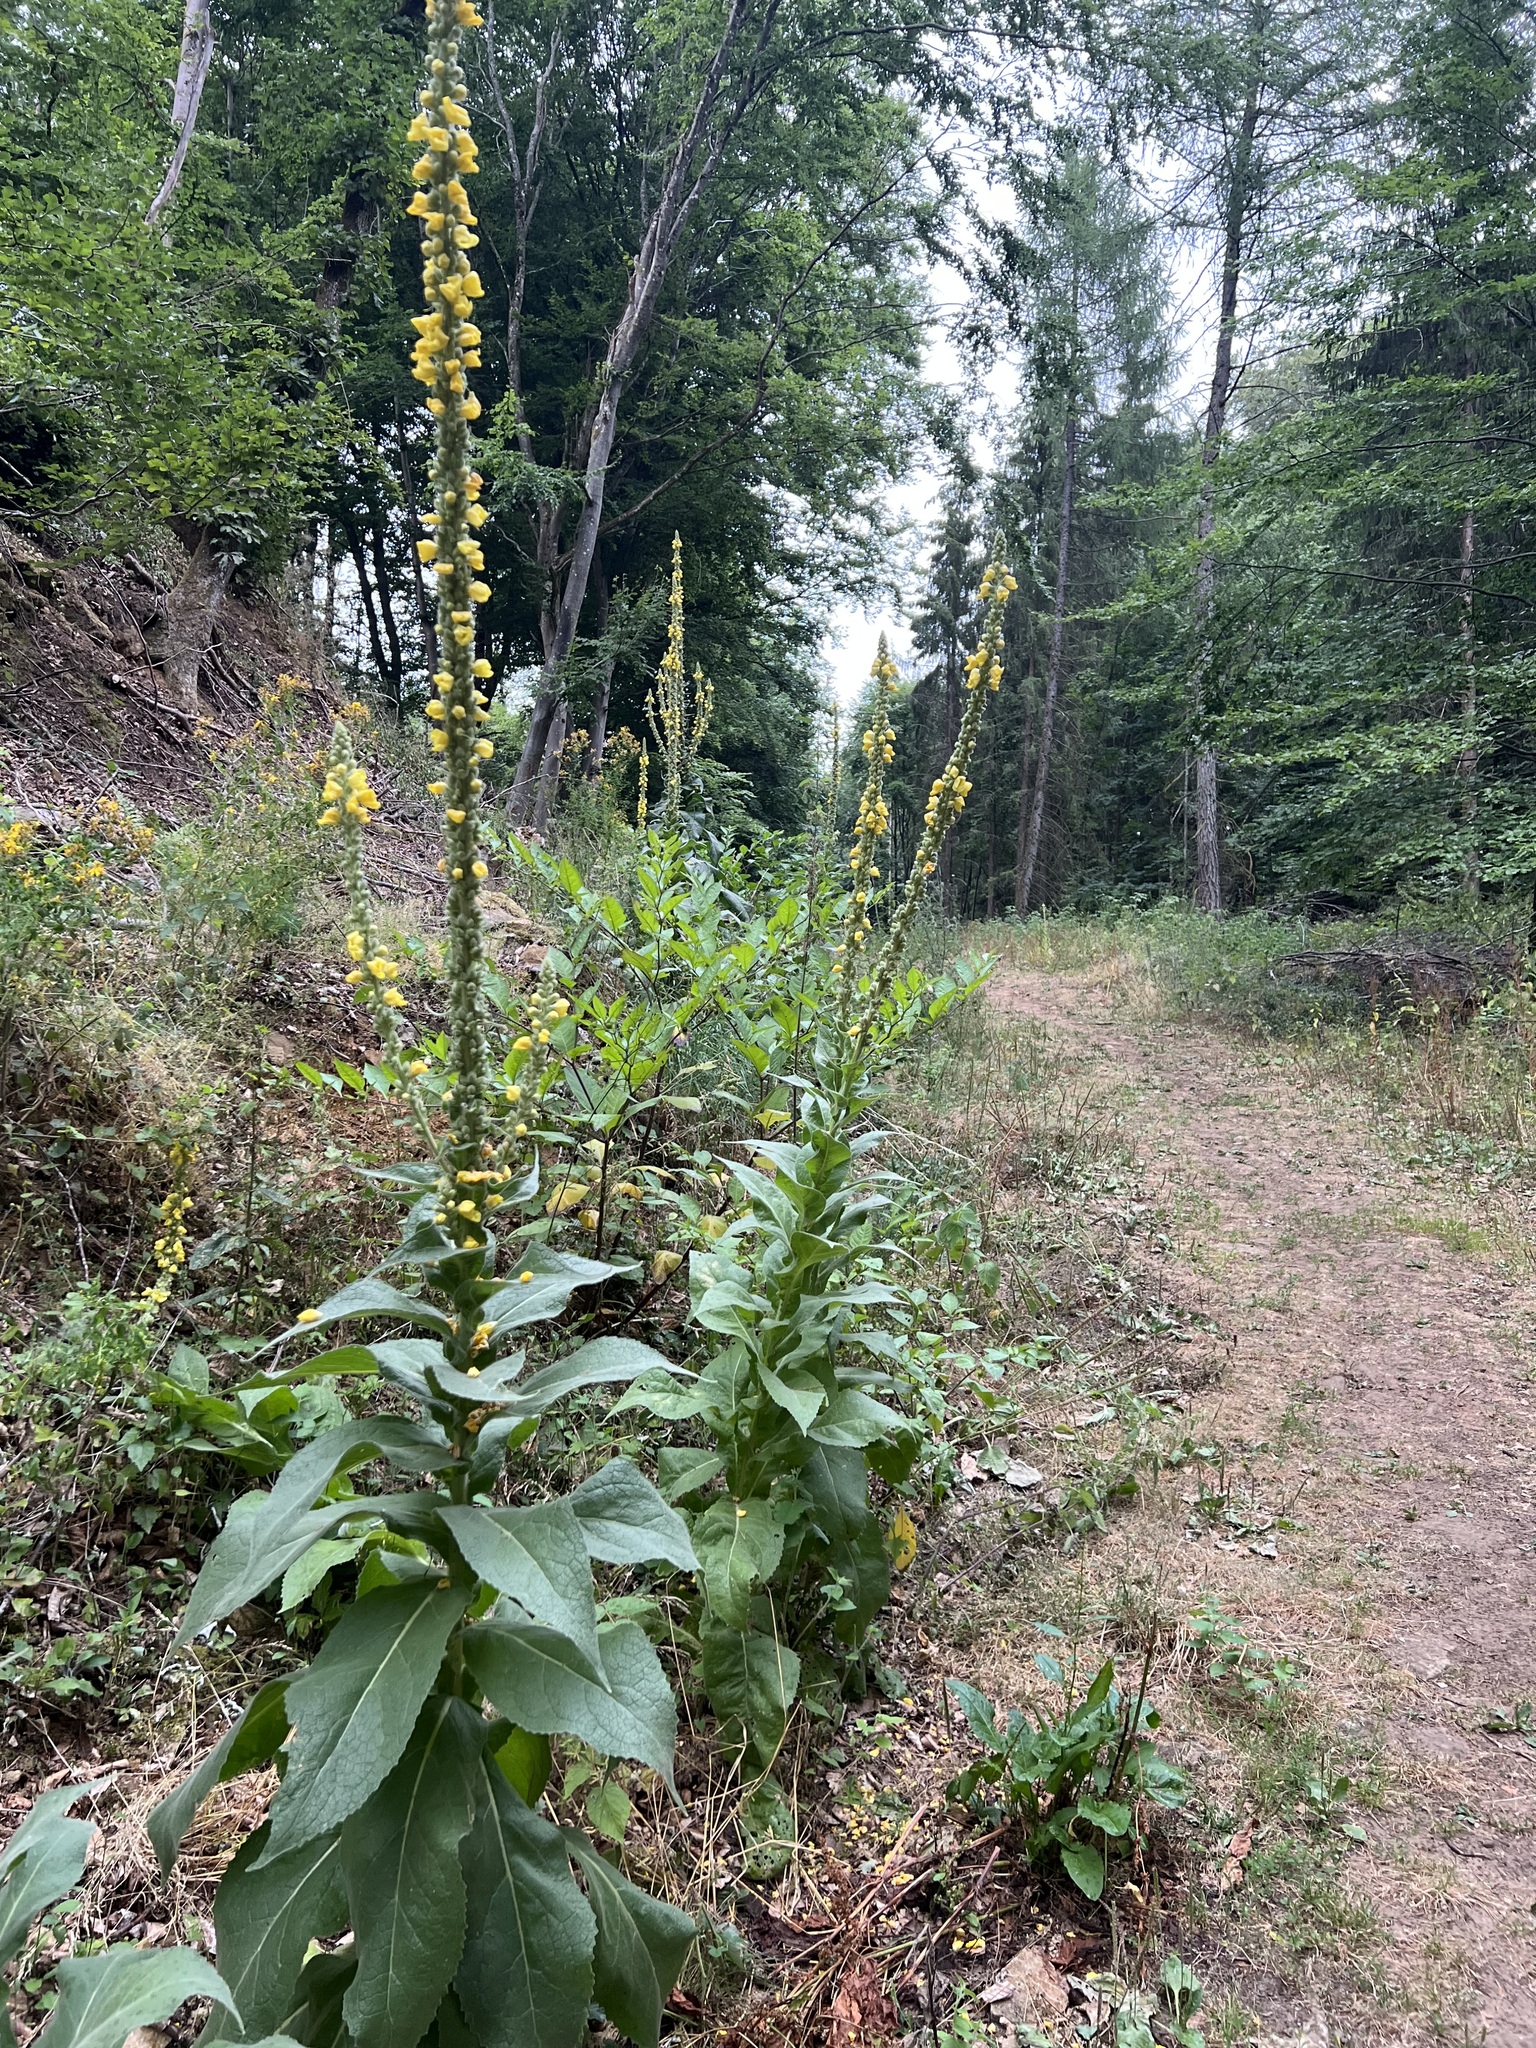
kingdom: Plantae
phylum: Tracheophyta
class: Magnoliopsida
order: Lamiales
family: Scrophulariaceae
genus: Verbascum
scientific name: Verbascum densiflorum
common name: Dense-flowered mullein
